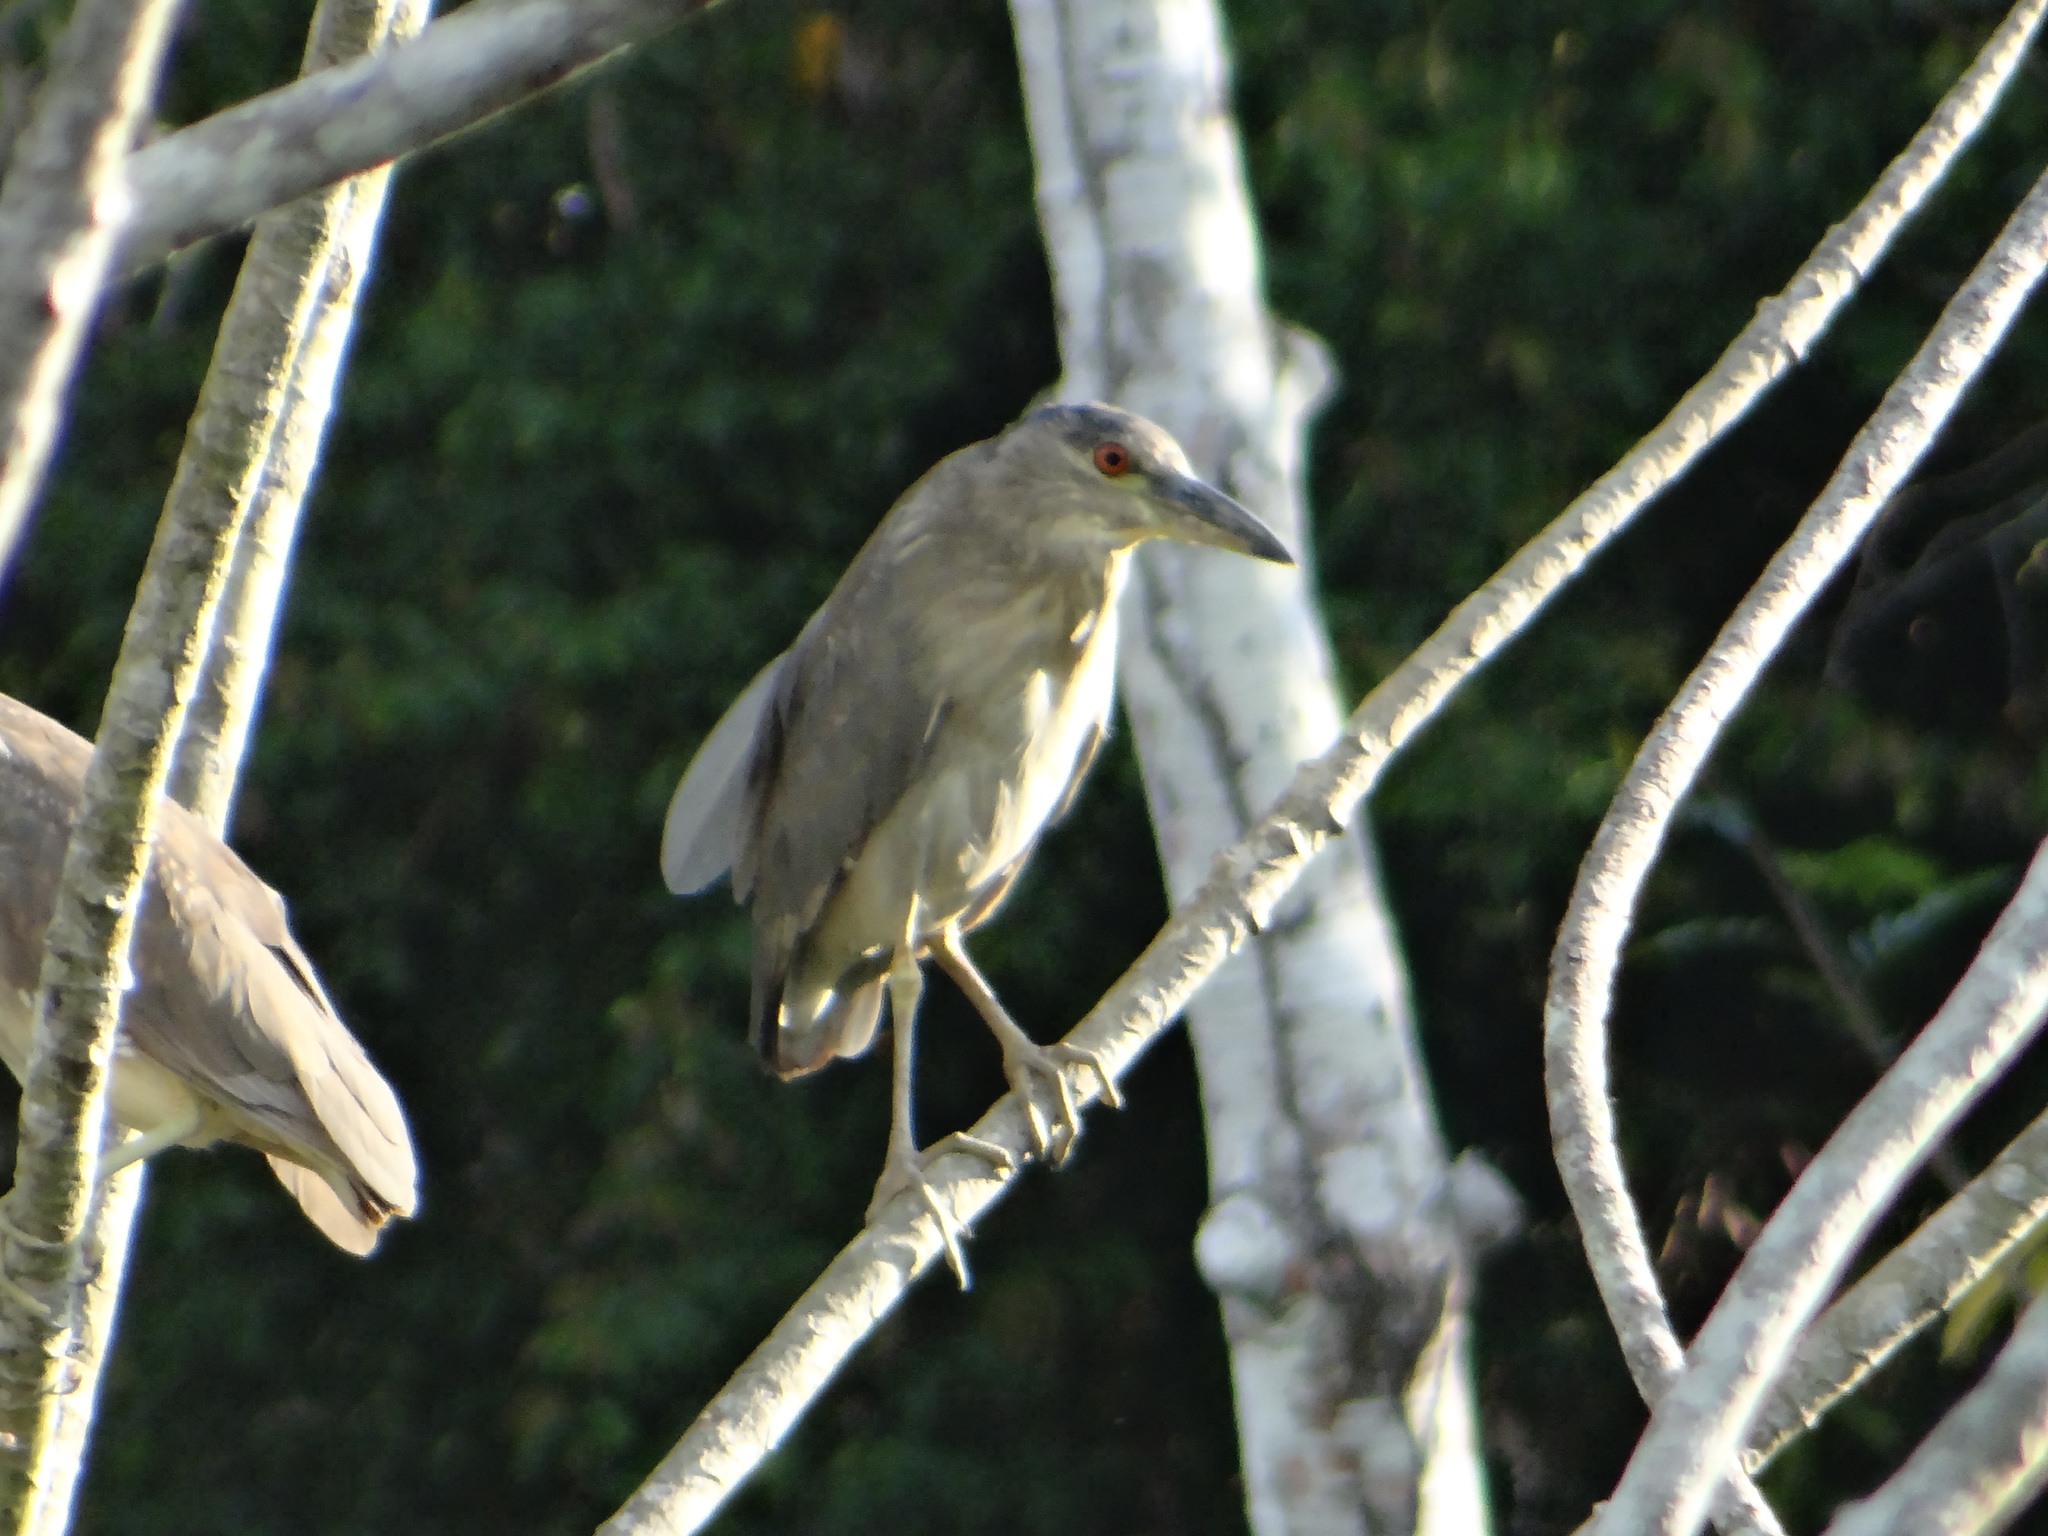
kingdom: Animalia
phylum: Chordata
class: Aves
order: Pelecaniformes
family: Ardeidae
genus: Nycticorax
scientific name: Nycticorax nycticorax
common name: Black-crowned night heron
